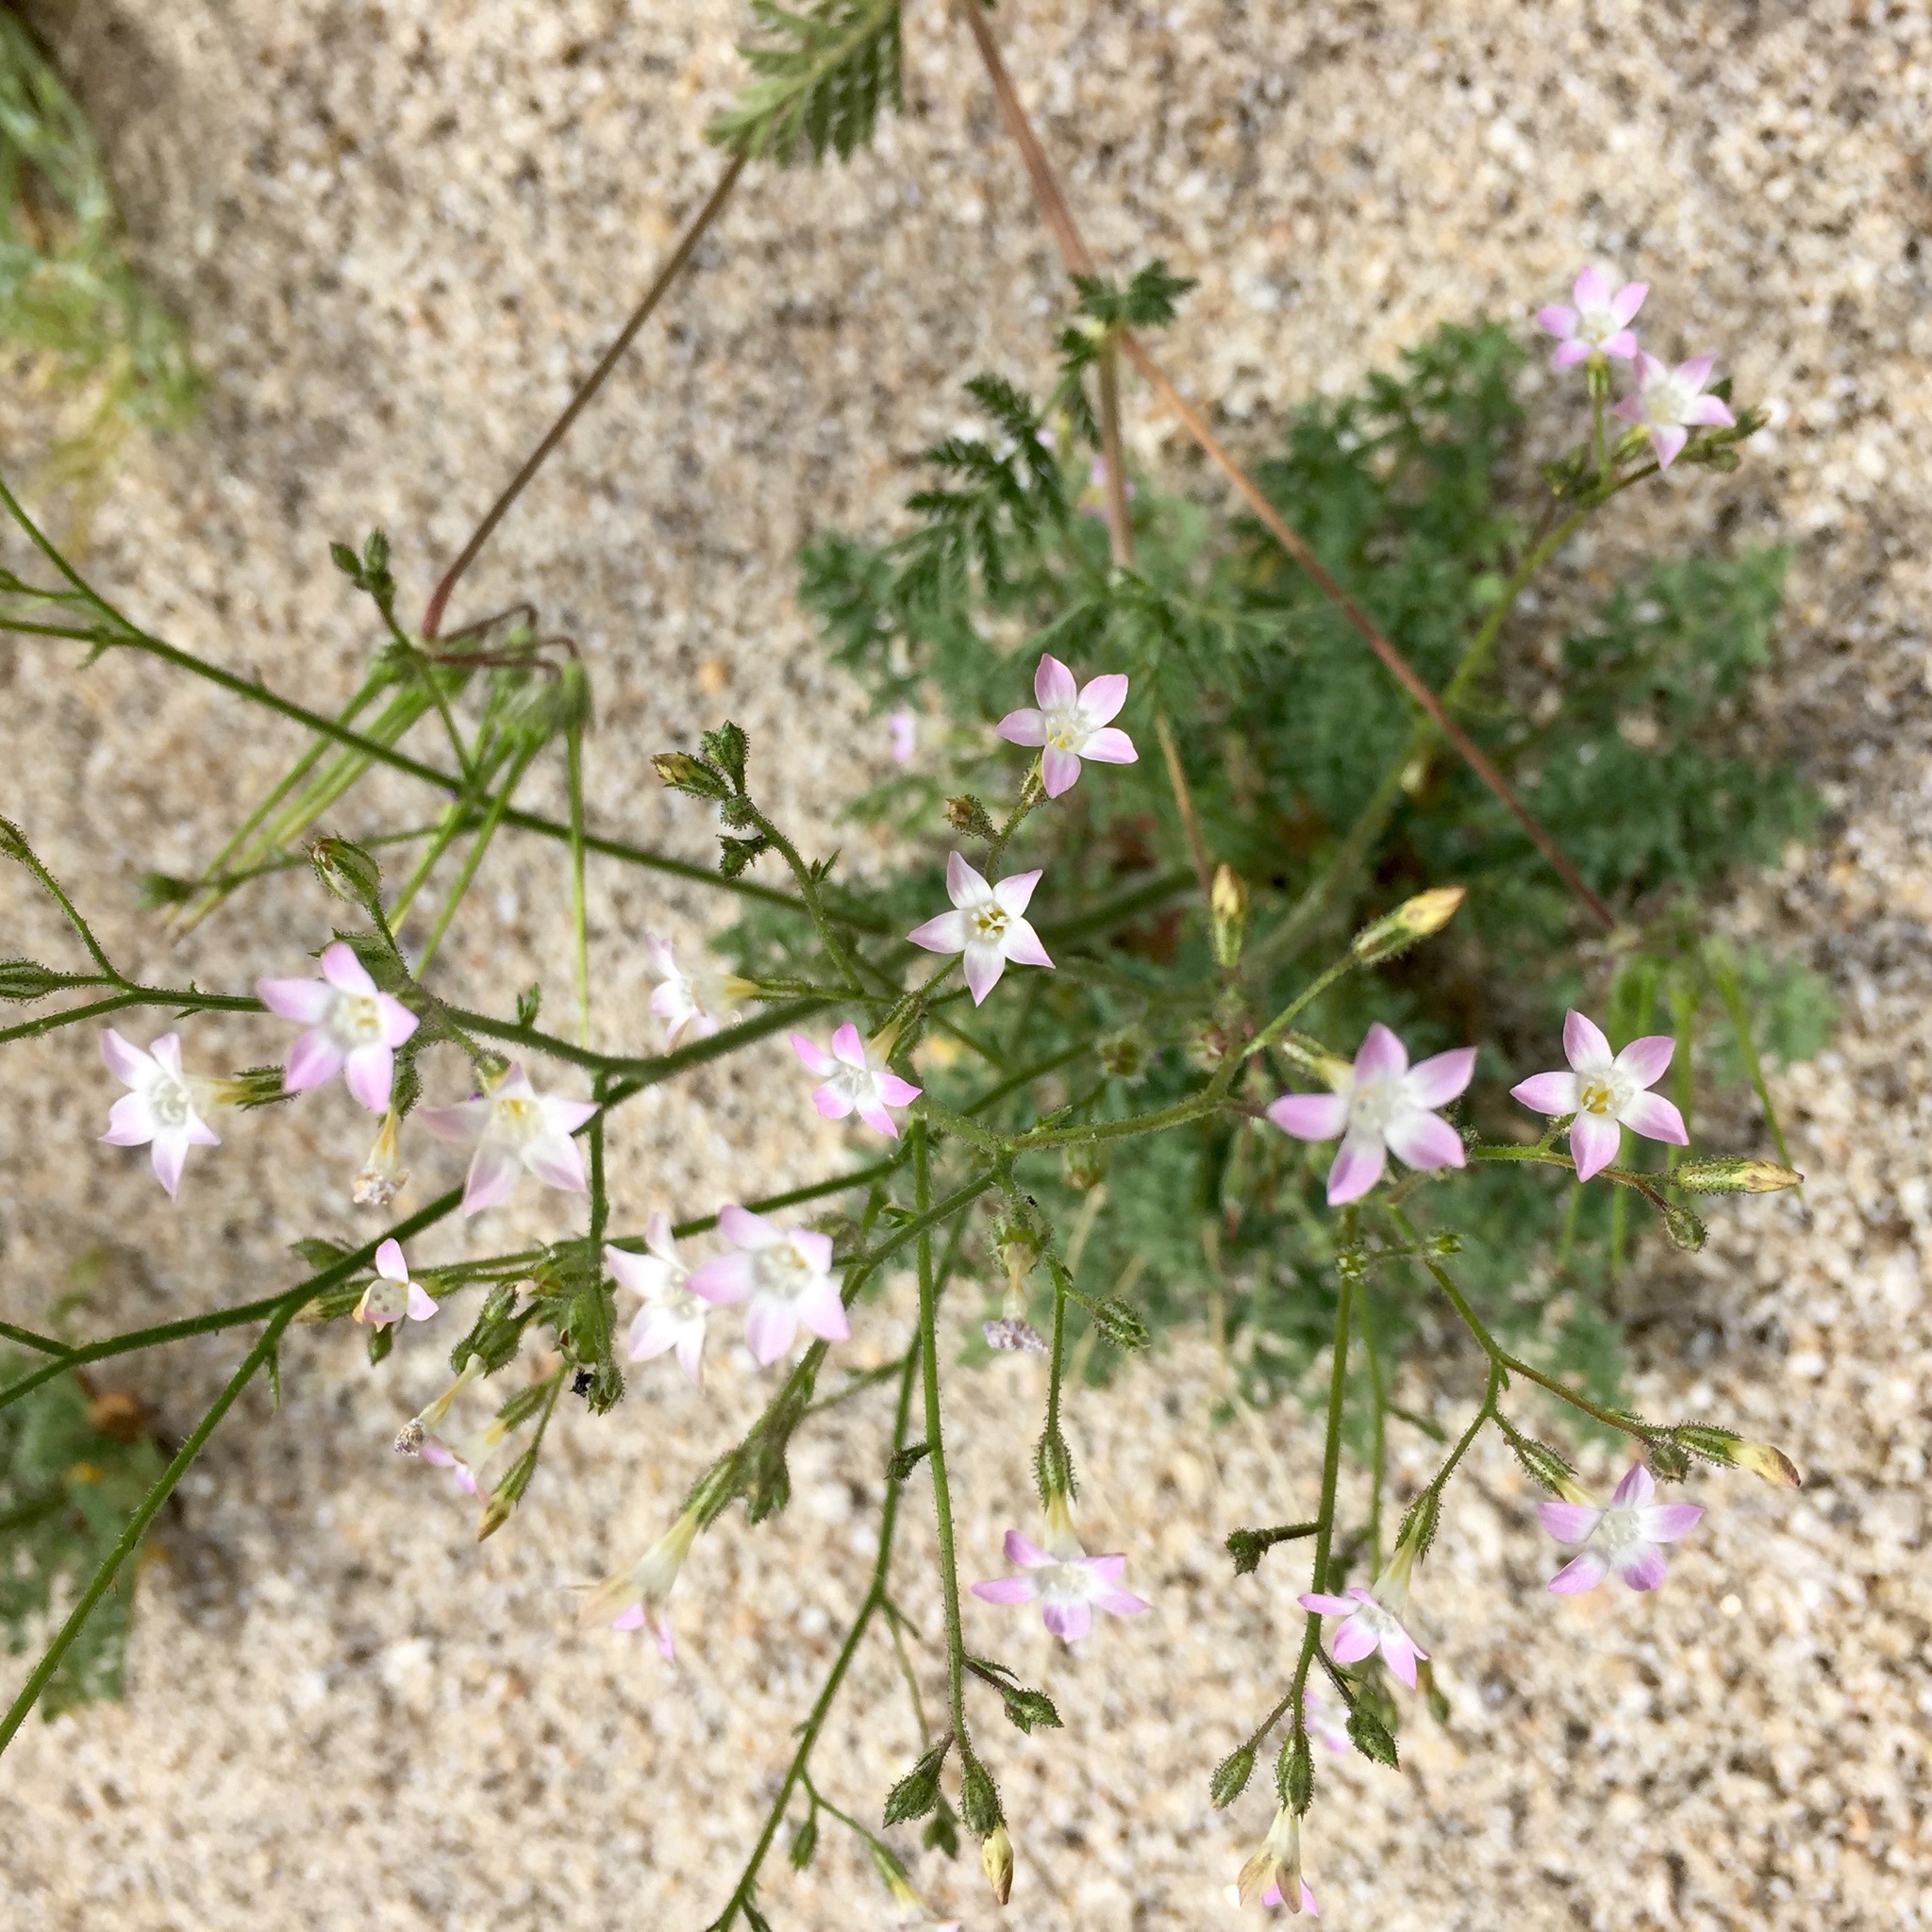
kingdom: Plantae
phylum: Tracheophyta
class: Magnoliopsida
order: Ericales
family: Polemoniaceae
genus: Gilia
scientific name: Gilia stellata
